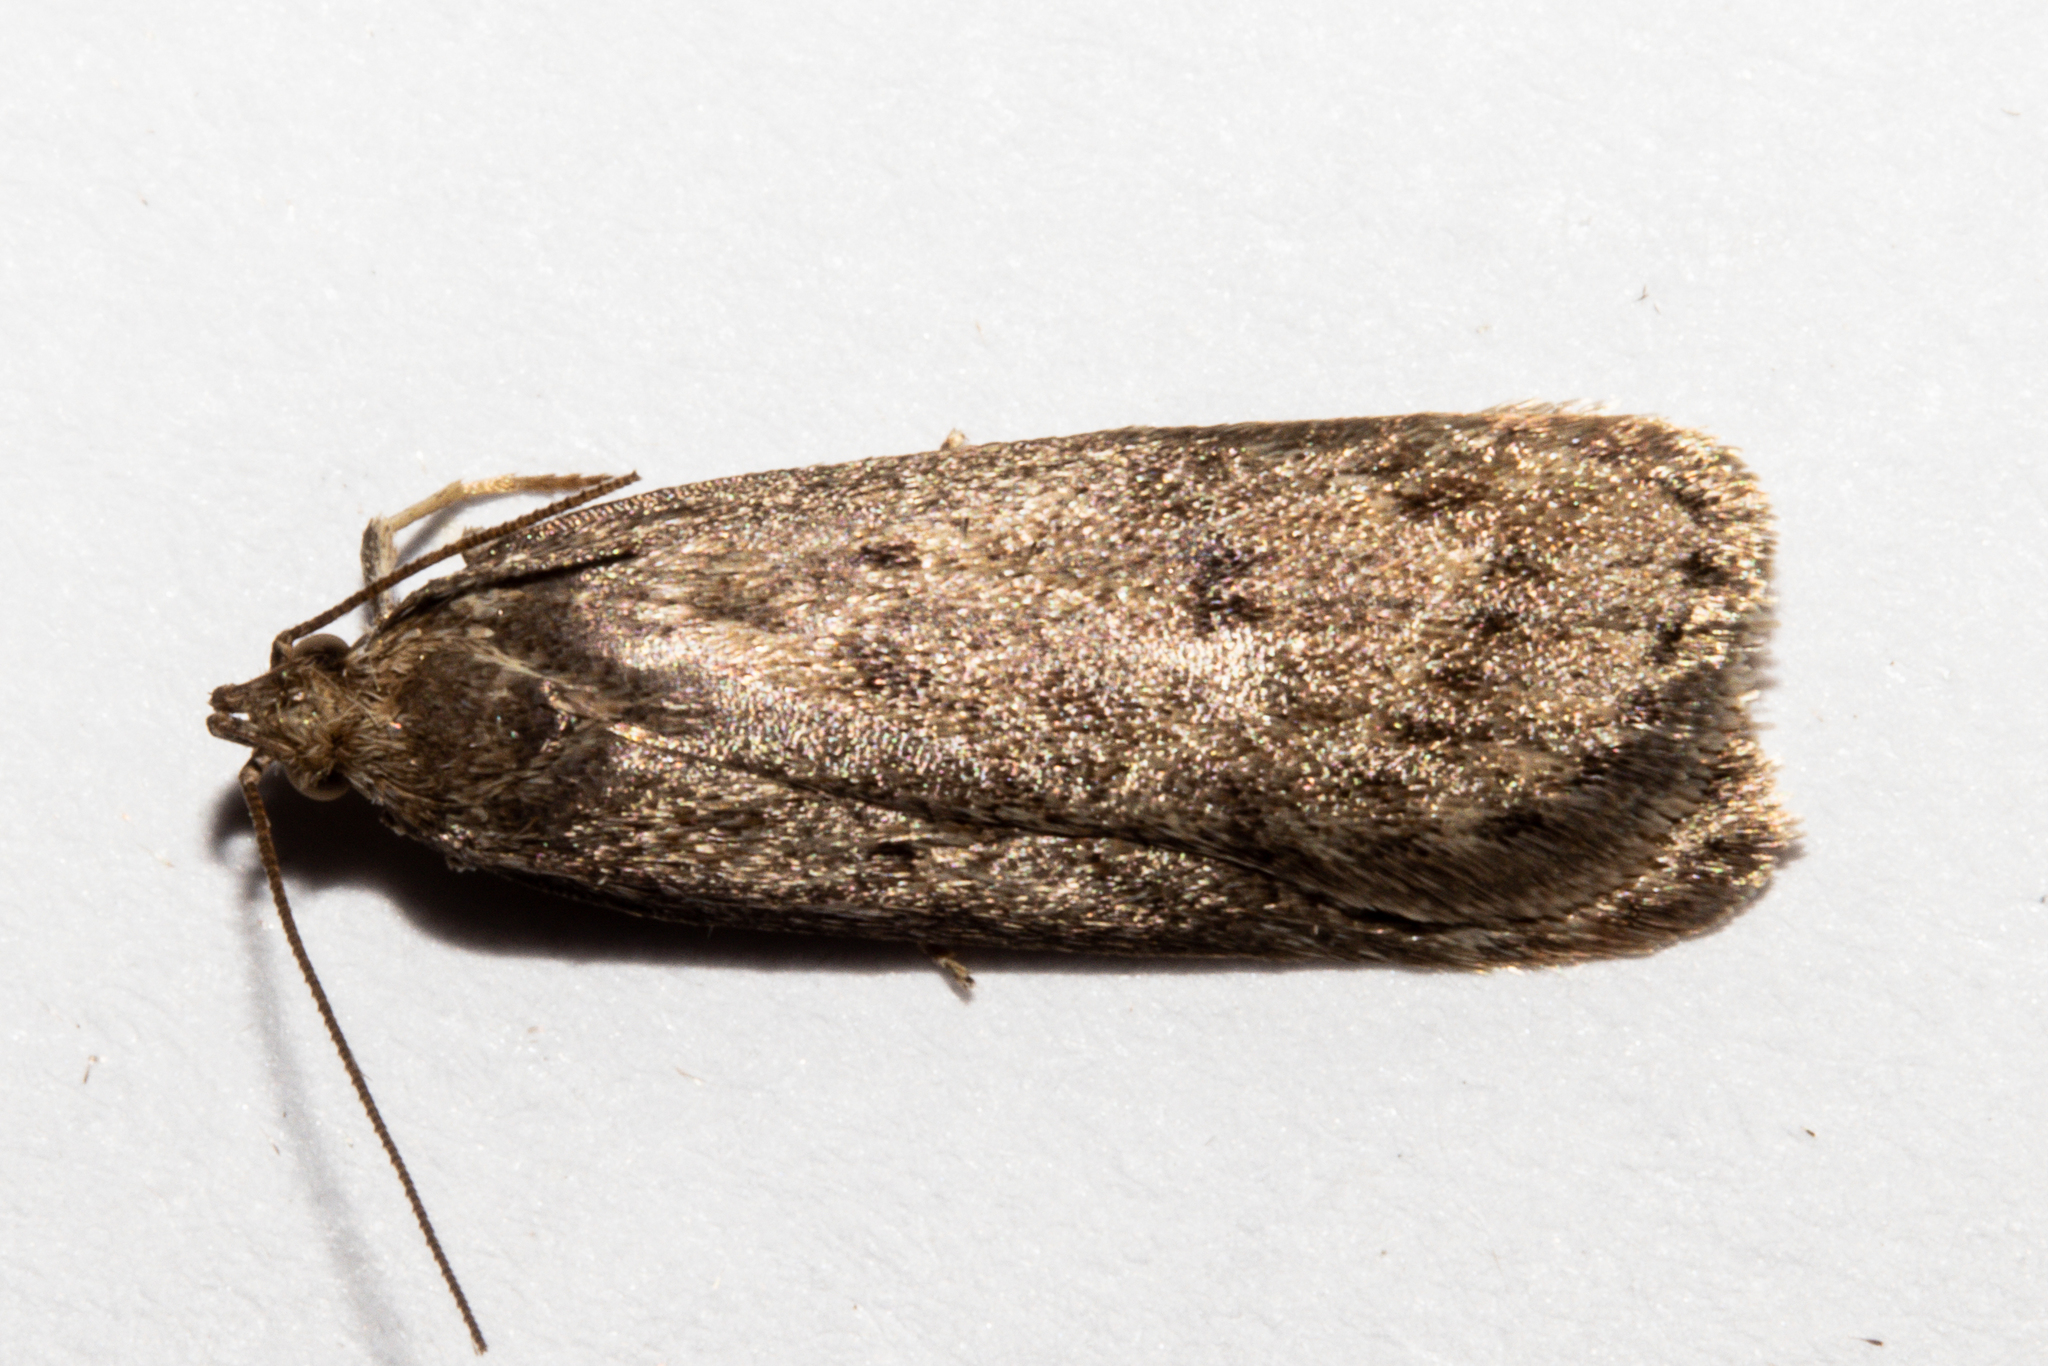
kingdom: Animalia
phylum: Arthropoda
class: Insecta
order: Lepidoptera
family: Depressariidae
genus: Phaeosaces
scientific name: Phaeosaces apocrypta
